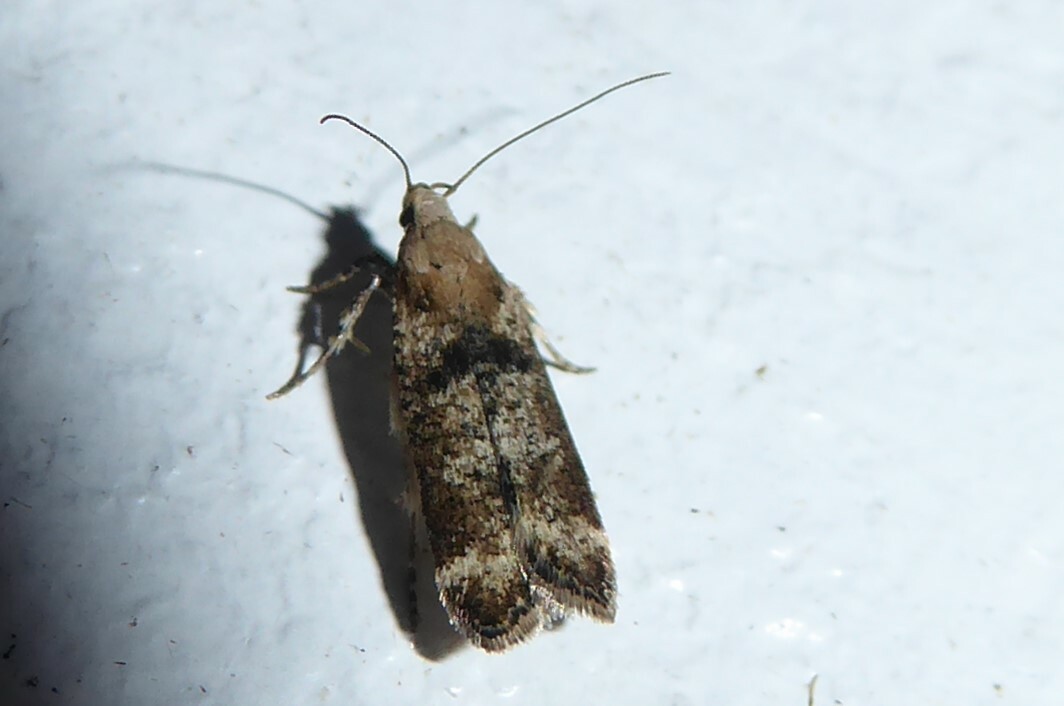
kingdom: Animalia
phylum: Arthropoda
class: Insecta
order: Lepidoptera
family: Gelechiidae
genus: Anisoplaca
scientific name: Anisoplaca acrodactyla
